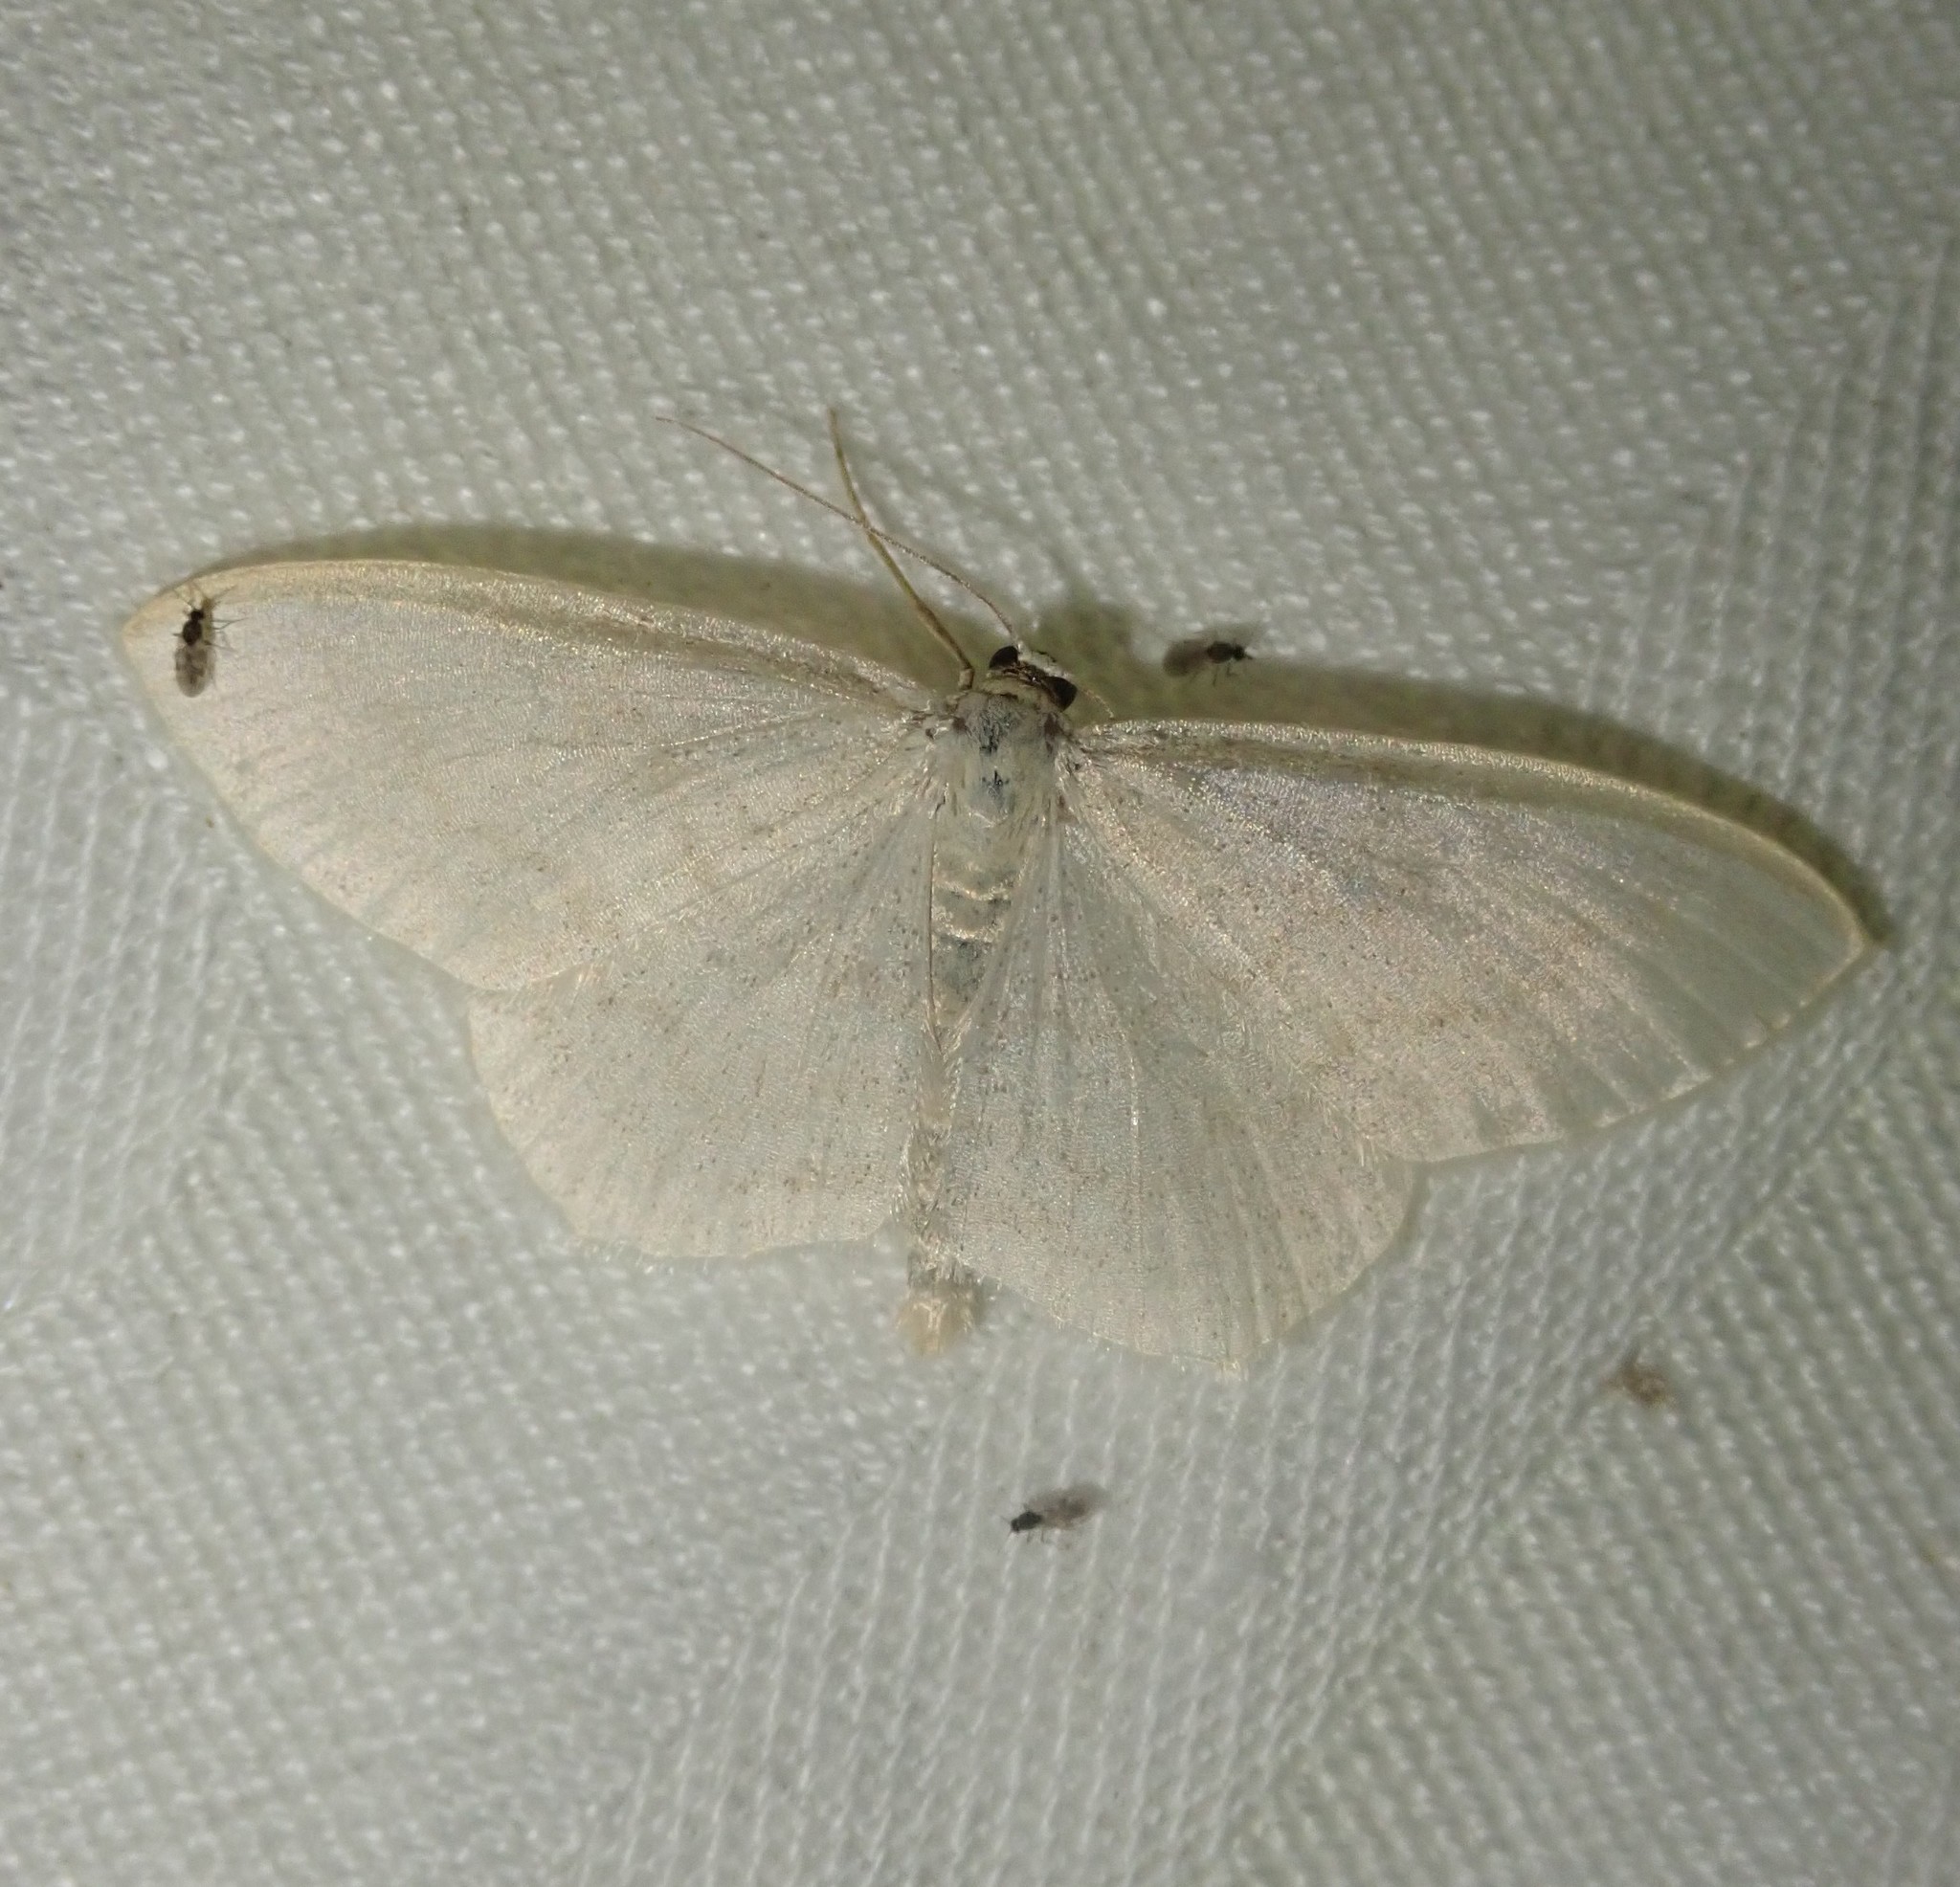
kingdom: Animalia
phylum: Arthropoda
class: Insecta
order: Lepidoptera
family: Geometridae
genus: Scopula
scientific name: Scopula floslactata
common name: Cream wave
